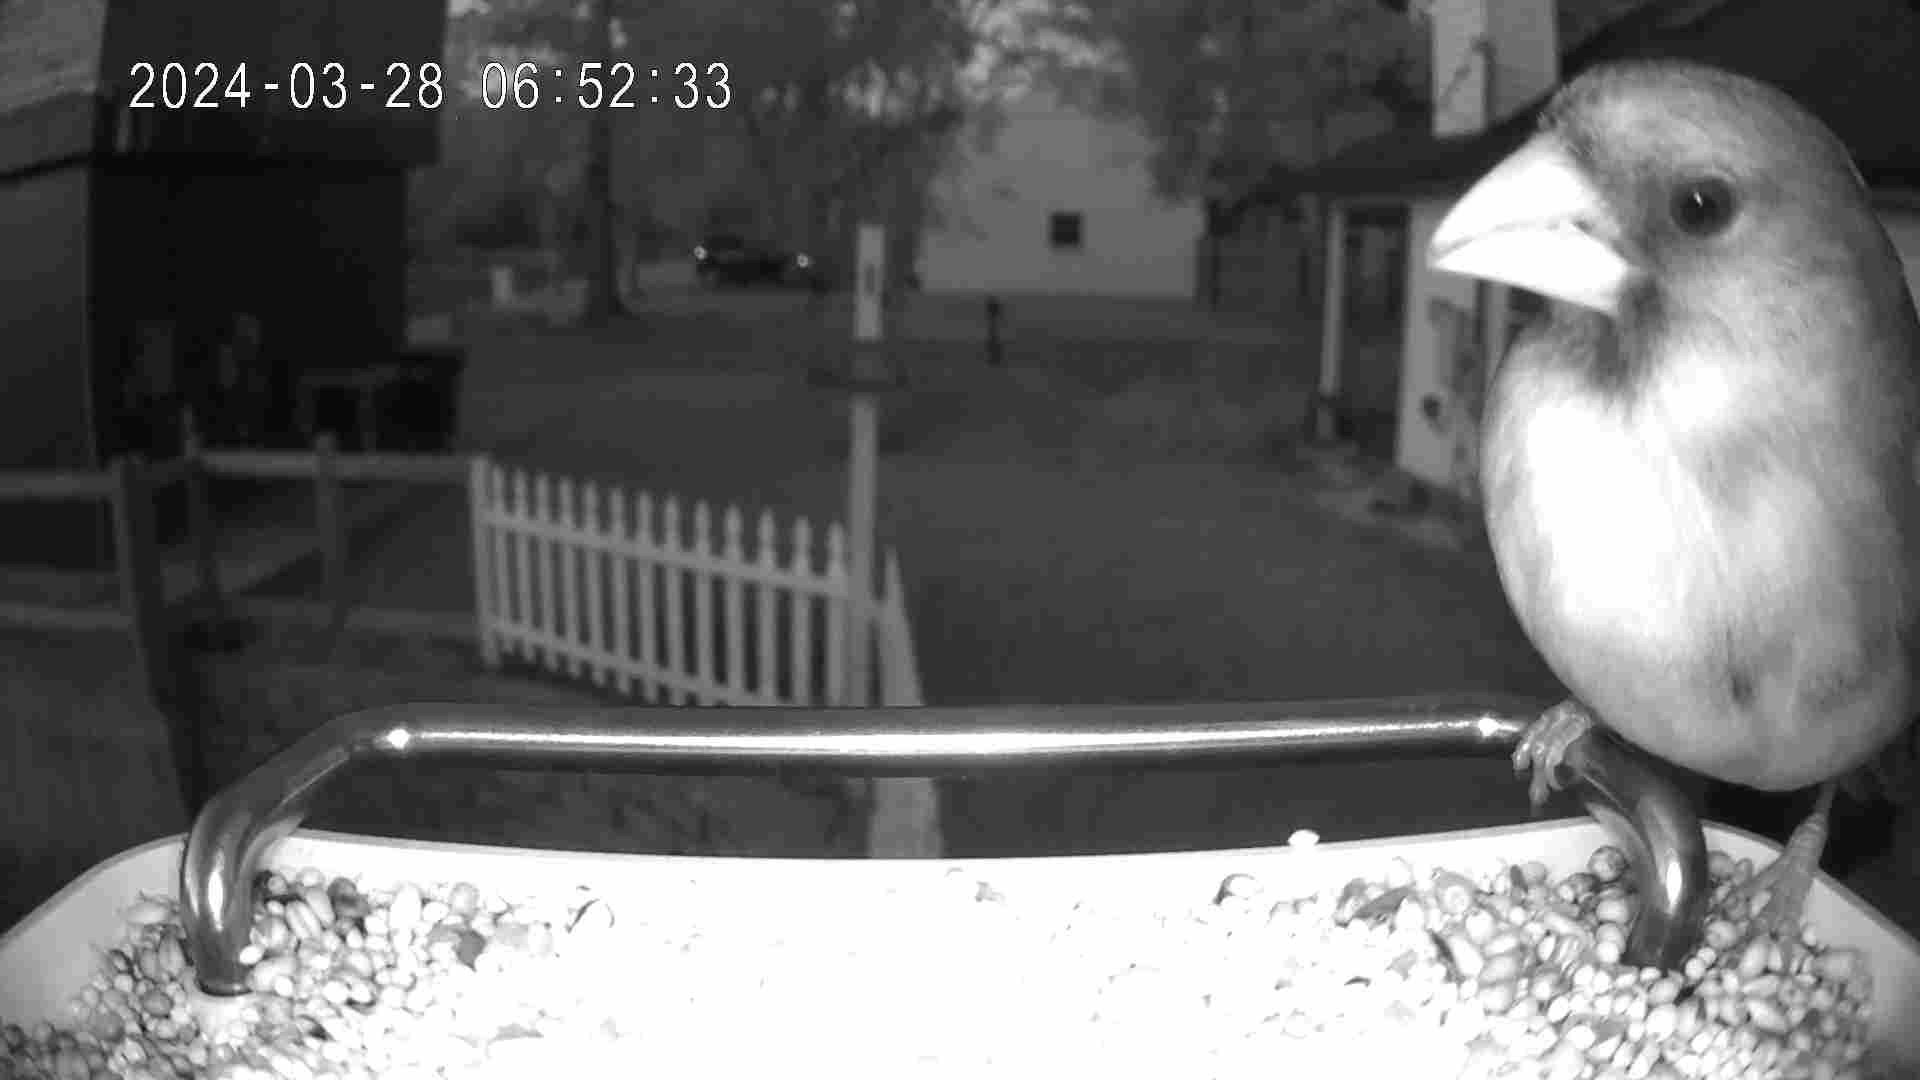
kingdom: Animalia
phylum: Chordata
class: Aves
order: Passeriformes
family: Cardinalidae
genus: Cardinalis
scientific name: Cardinalis cardinalis
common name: Northern cardinal
